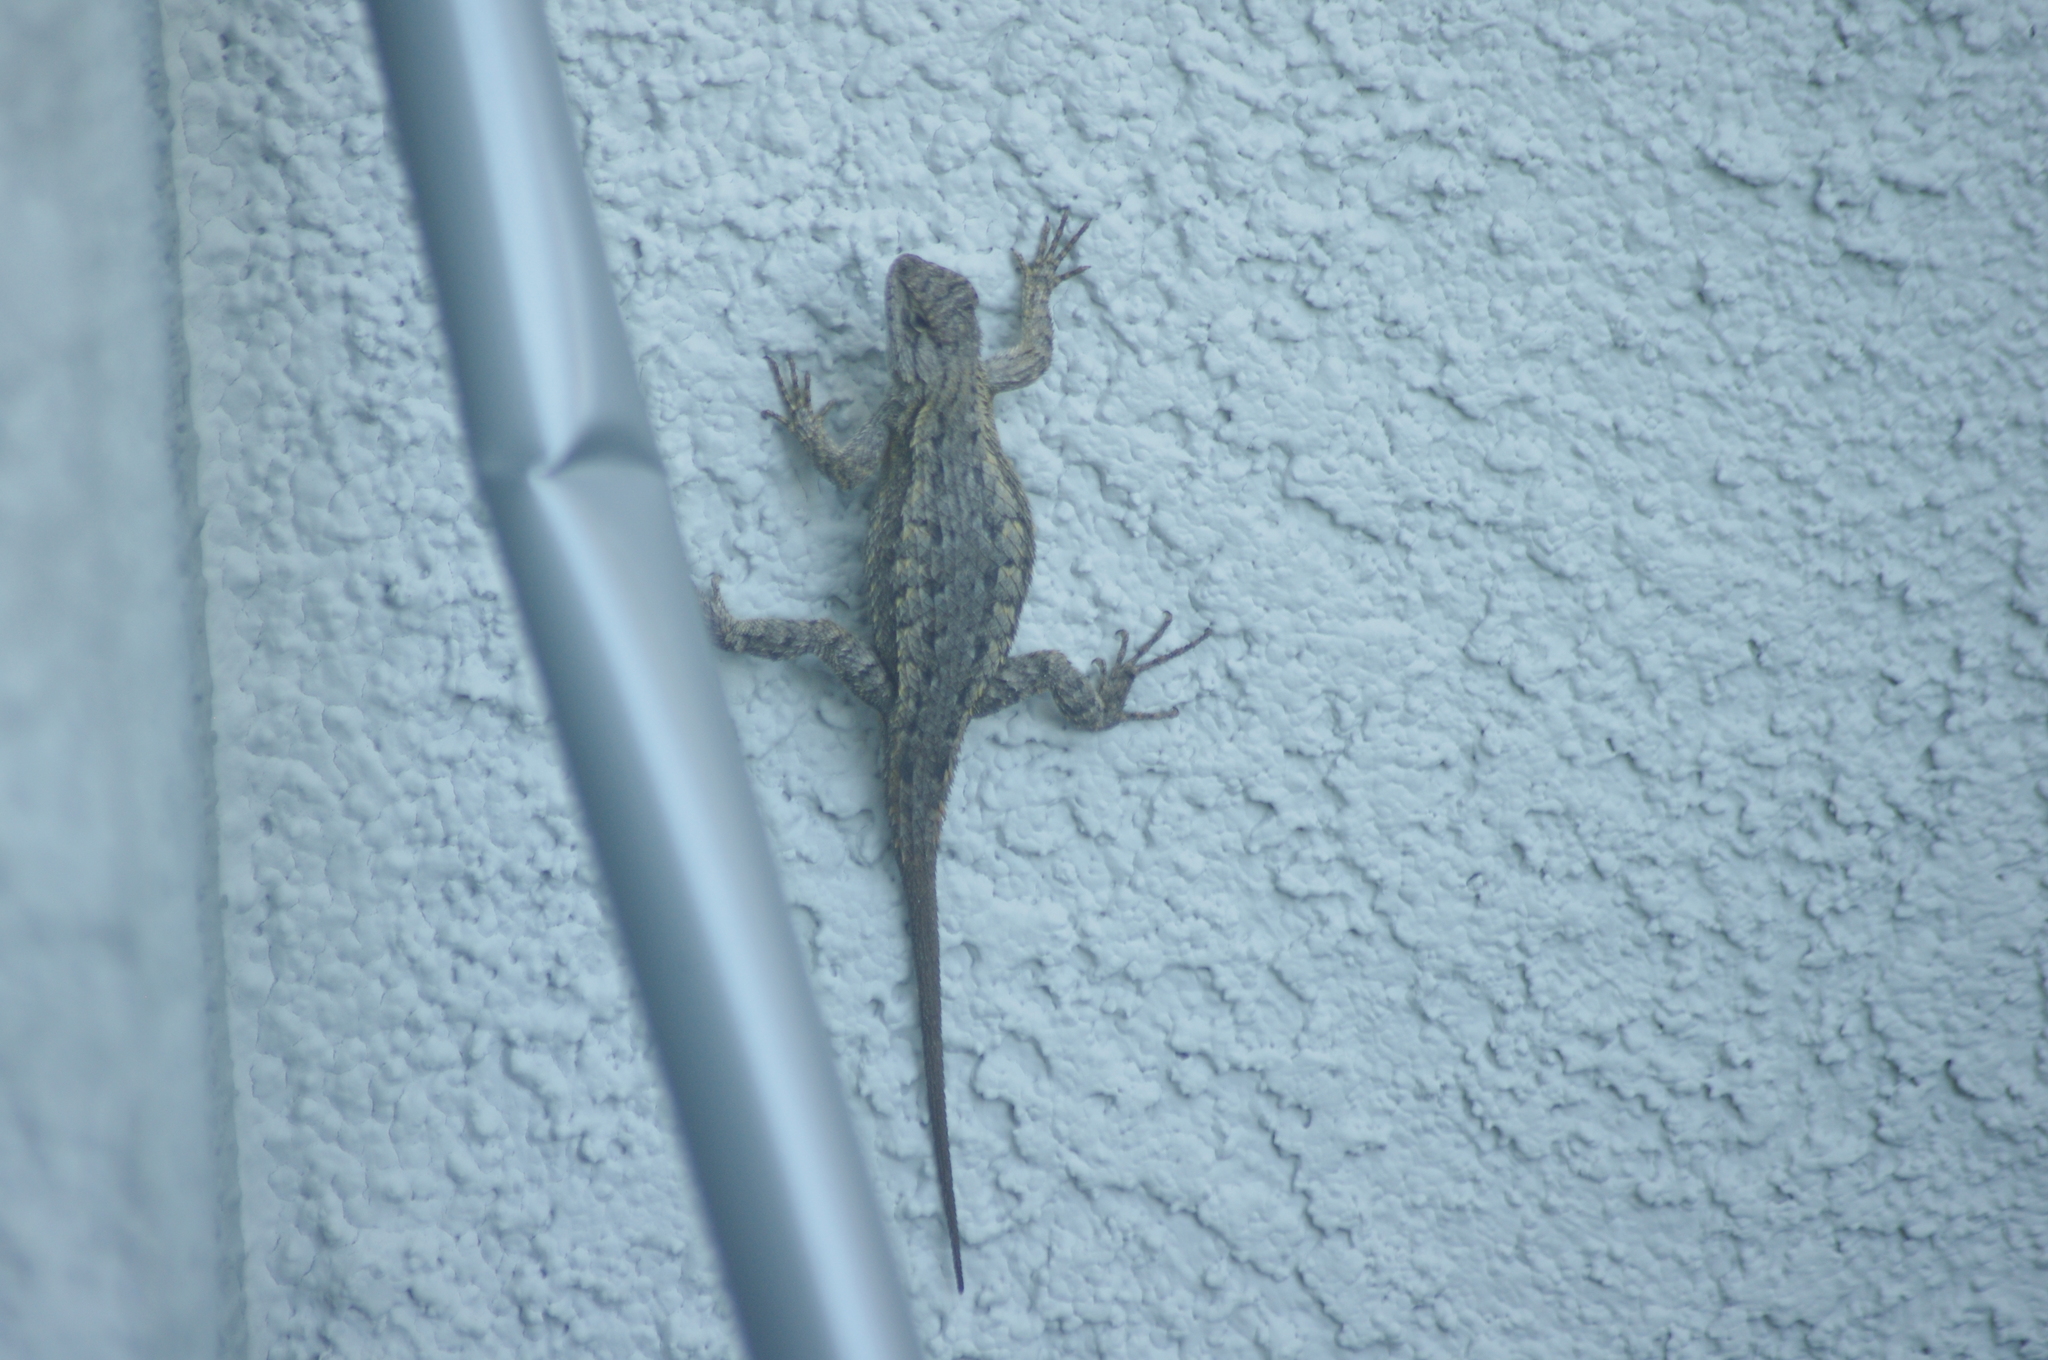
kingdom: Animalia
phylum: Chordata
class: Squamata
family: Phrynosomatidae
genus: Sceloporus
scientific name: Sceloporus occidentalis
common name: Western fence lizard
